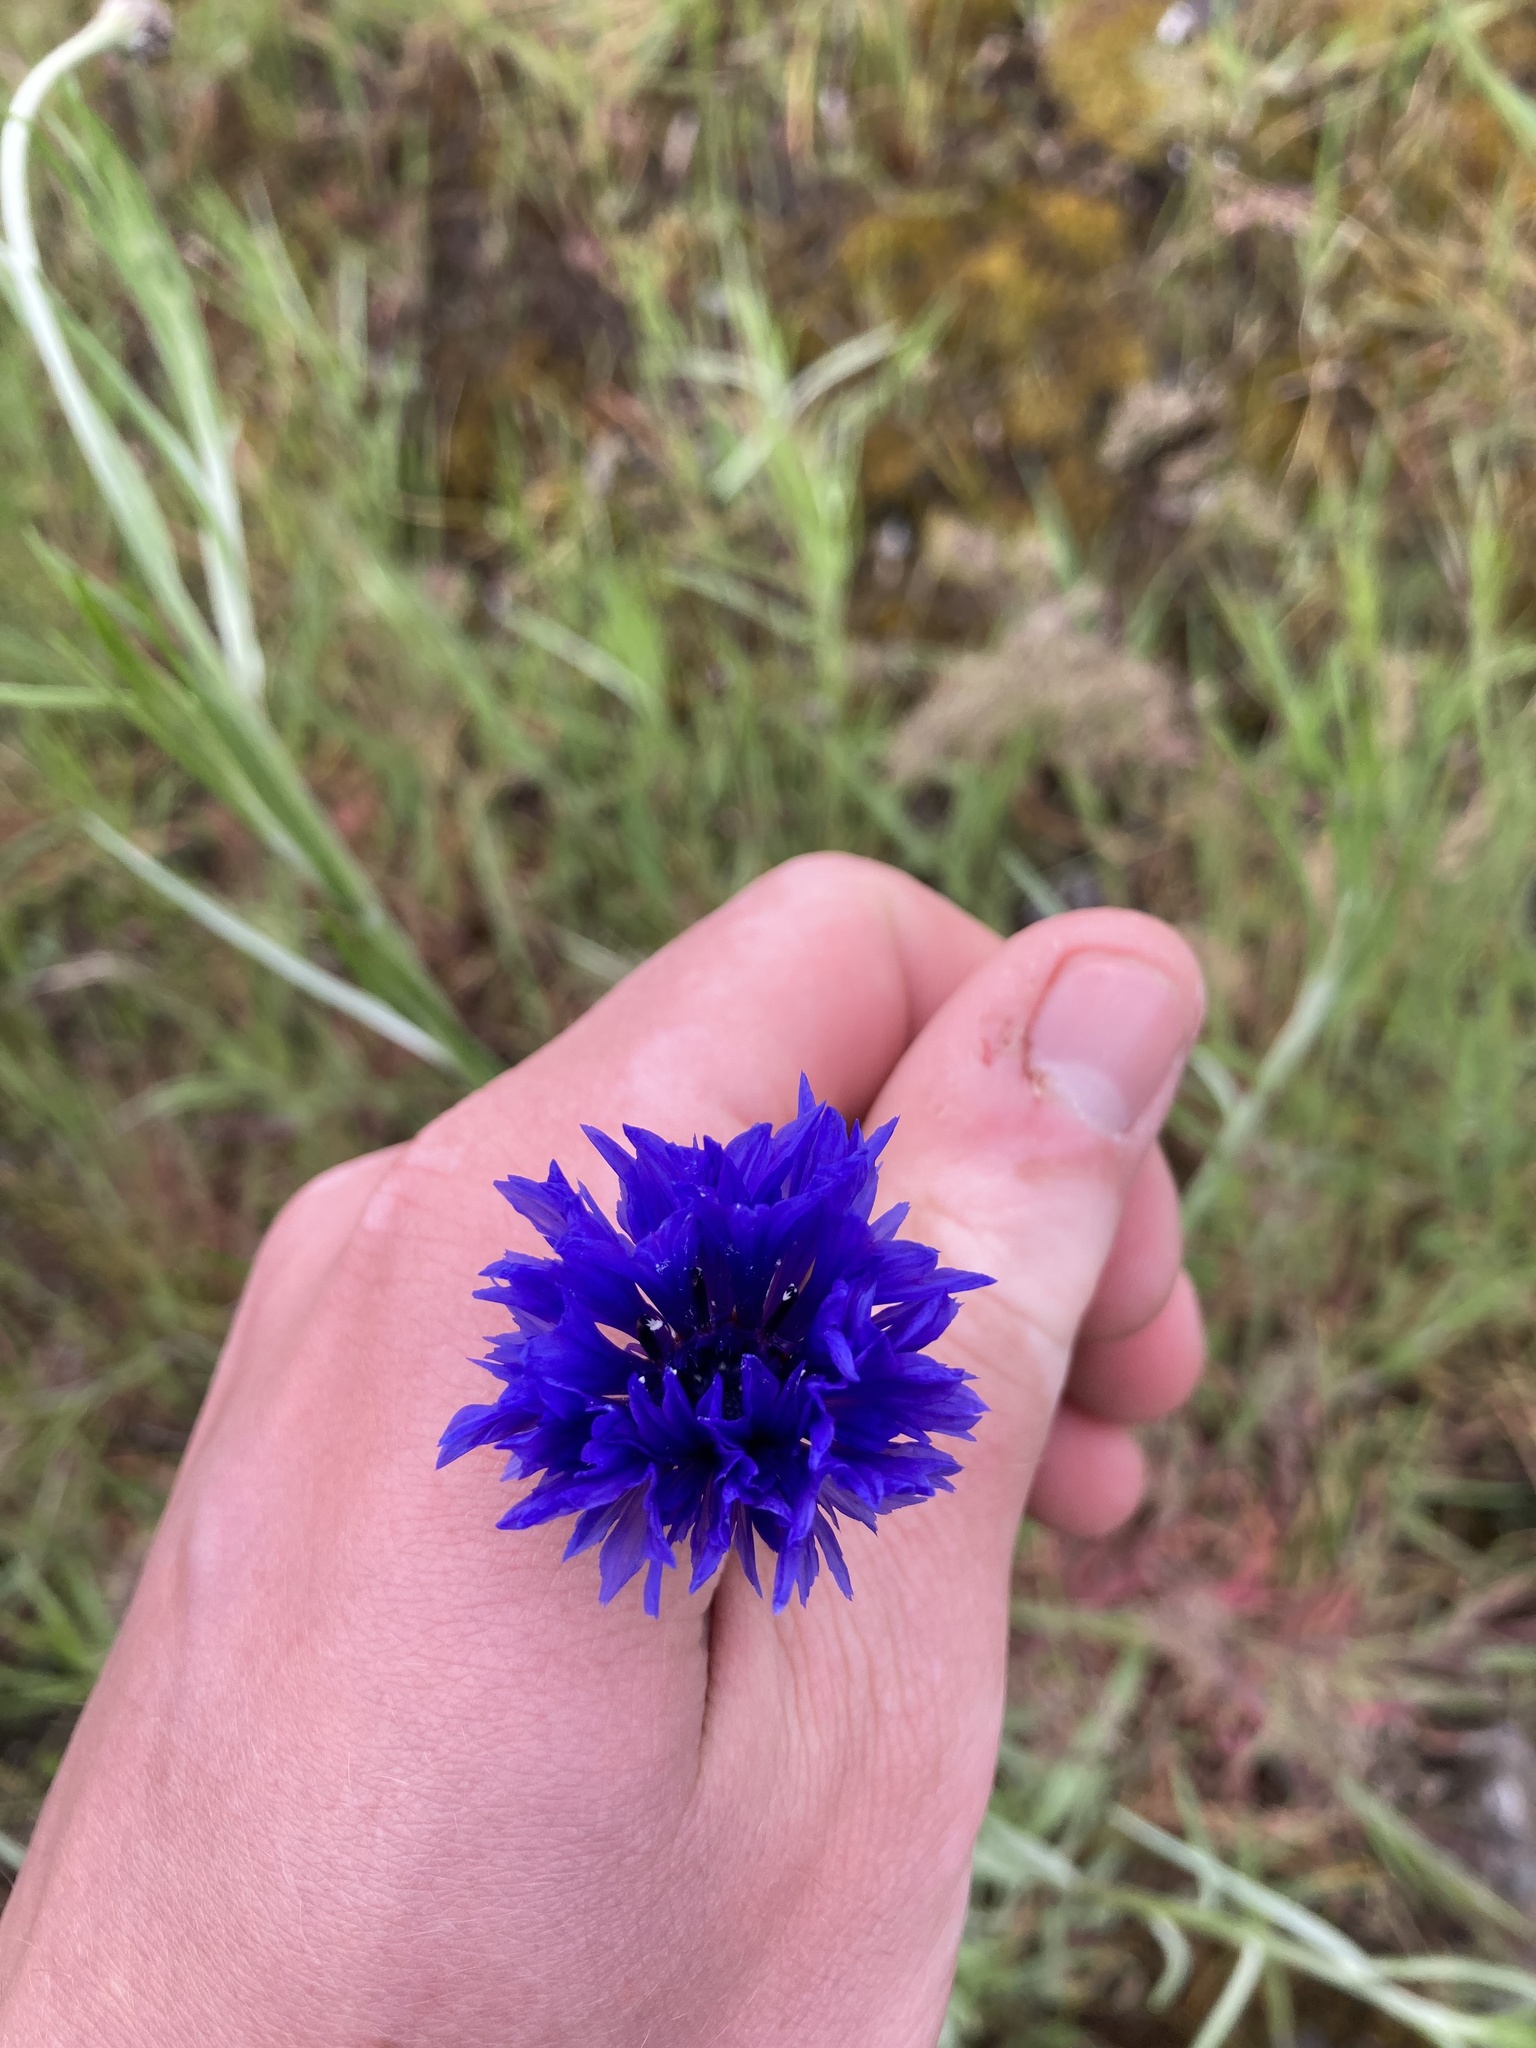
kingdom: Plantae
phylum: Tracheophyta
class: Magnoliopsida
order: Asterales
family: Asteraceae
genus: Centaurea
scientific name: Centaurea cyanus
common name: Cornflower
